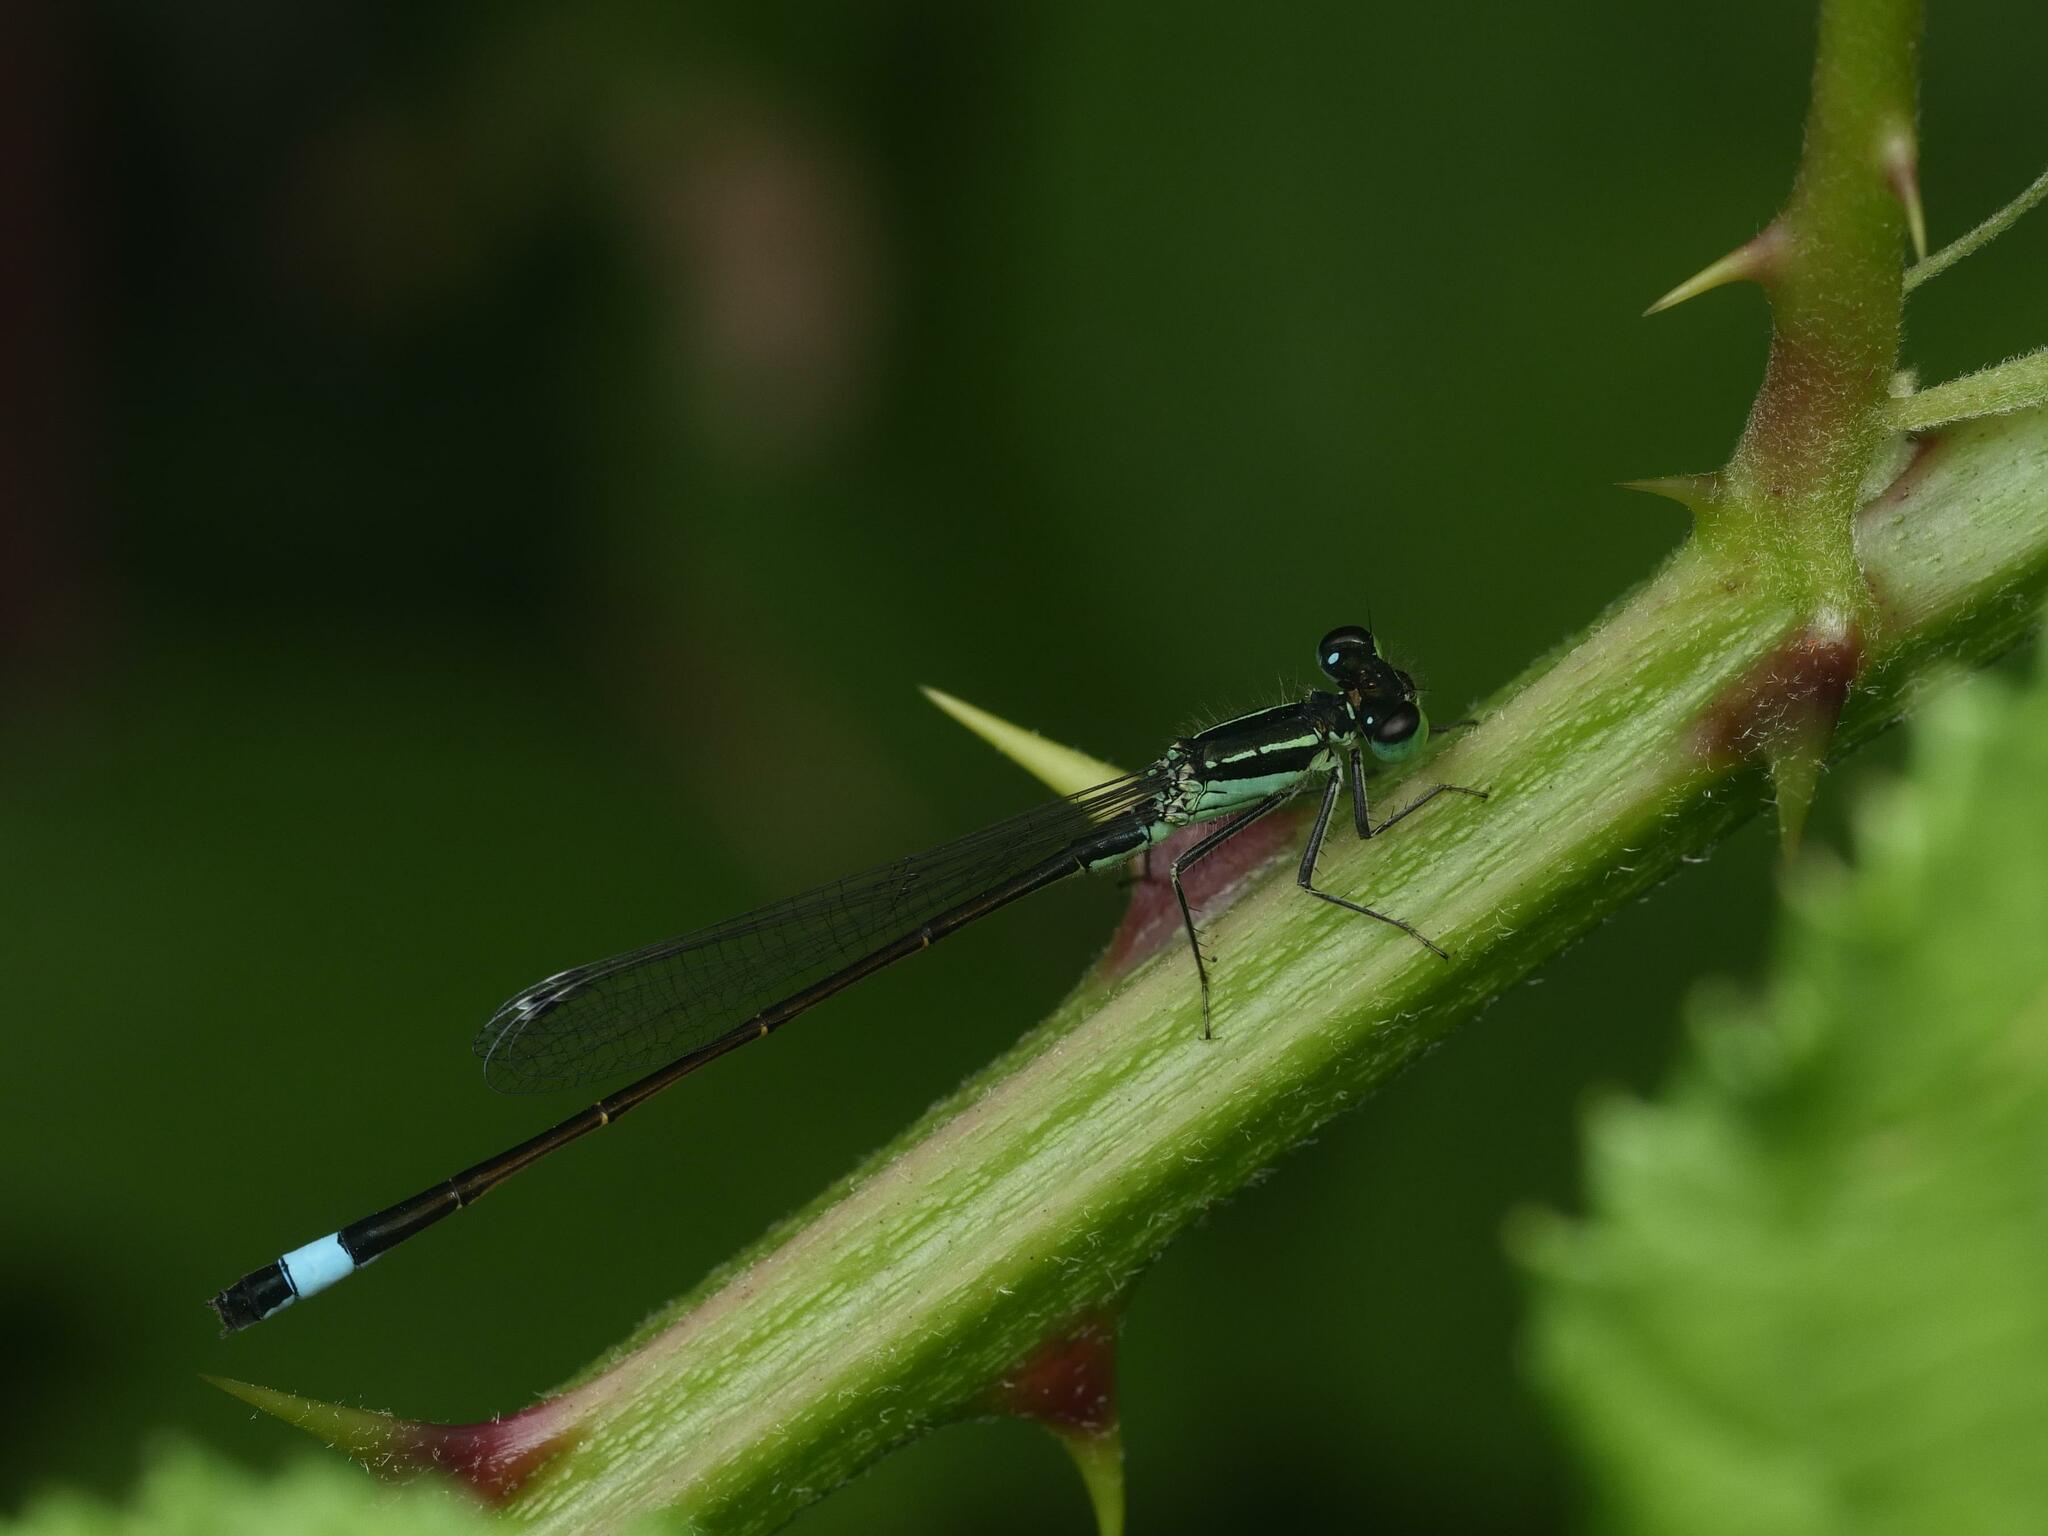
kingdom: Animalia
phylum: Arthropoda
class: Insecta
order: Odonata
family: Coenagrionidae
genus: Ischnura
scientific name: Ischnura elegans
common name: Blue-tailed damselfly
